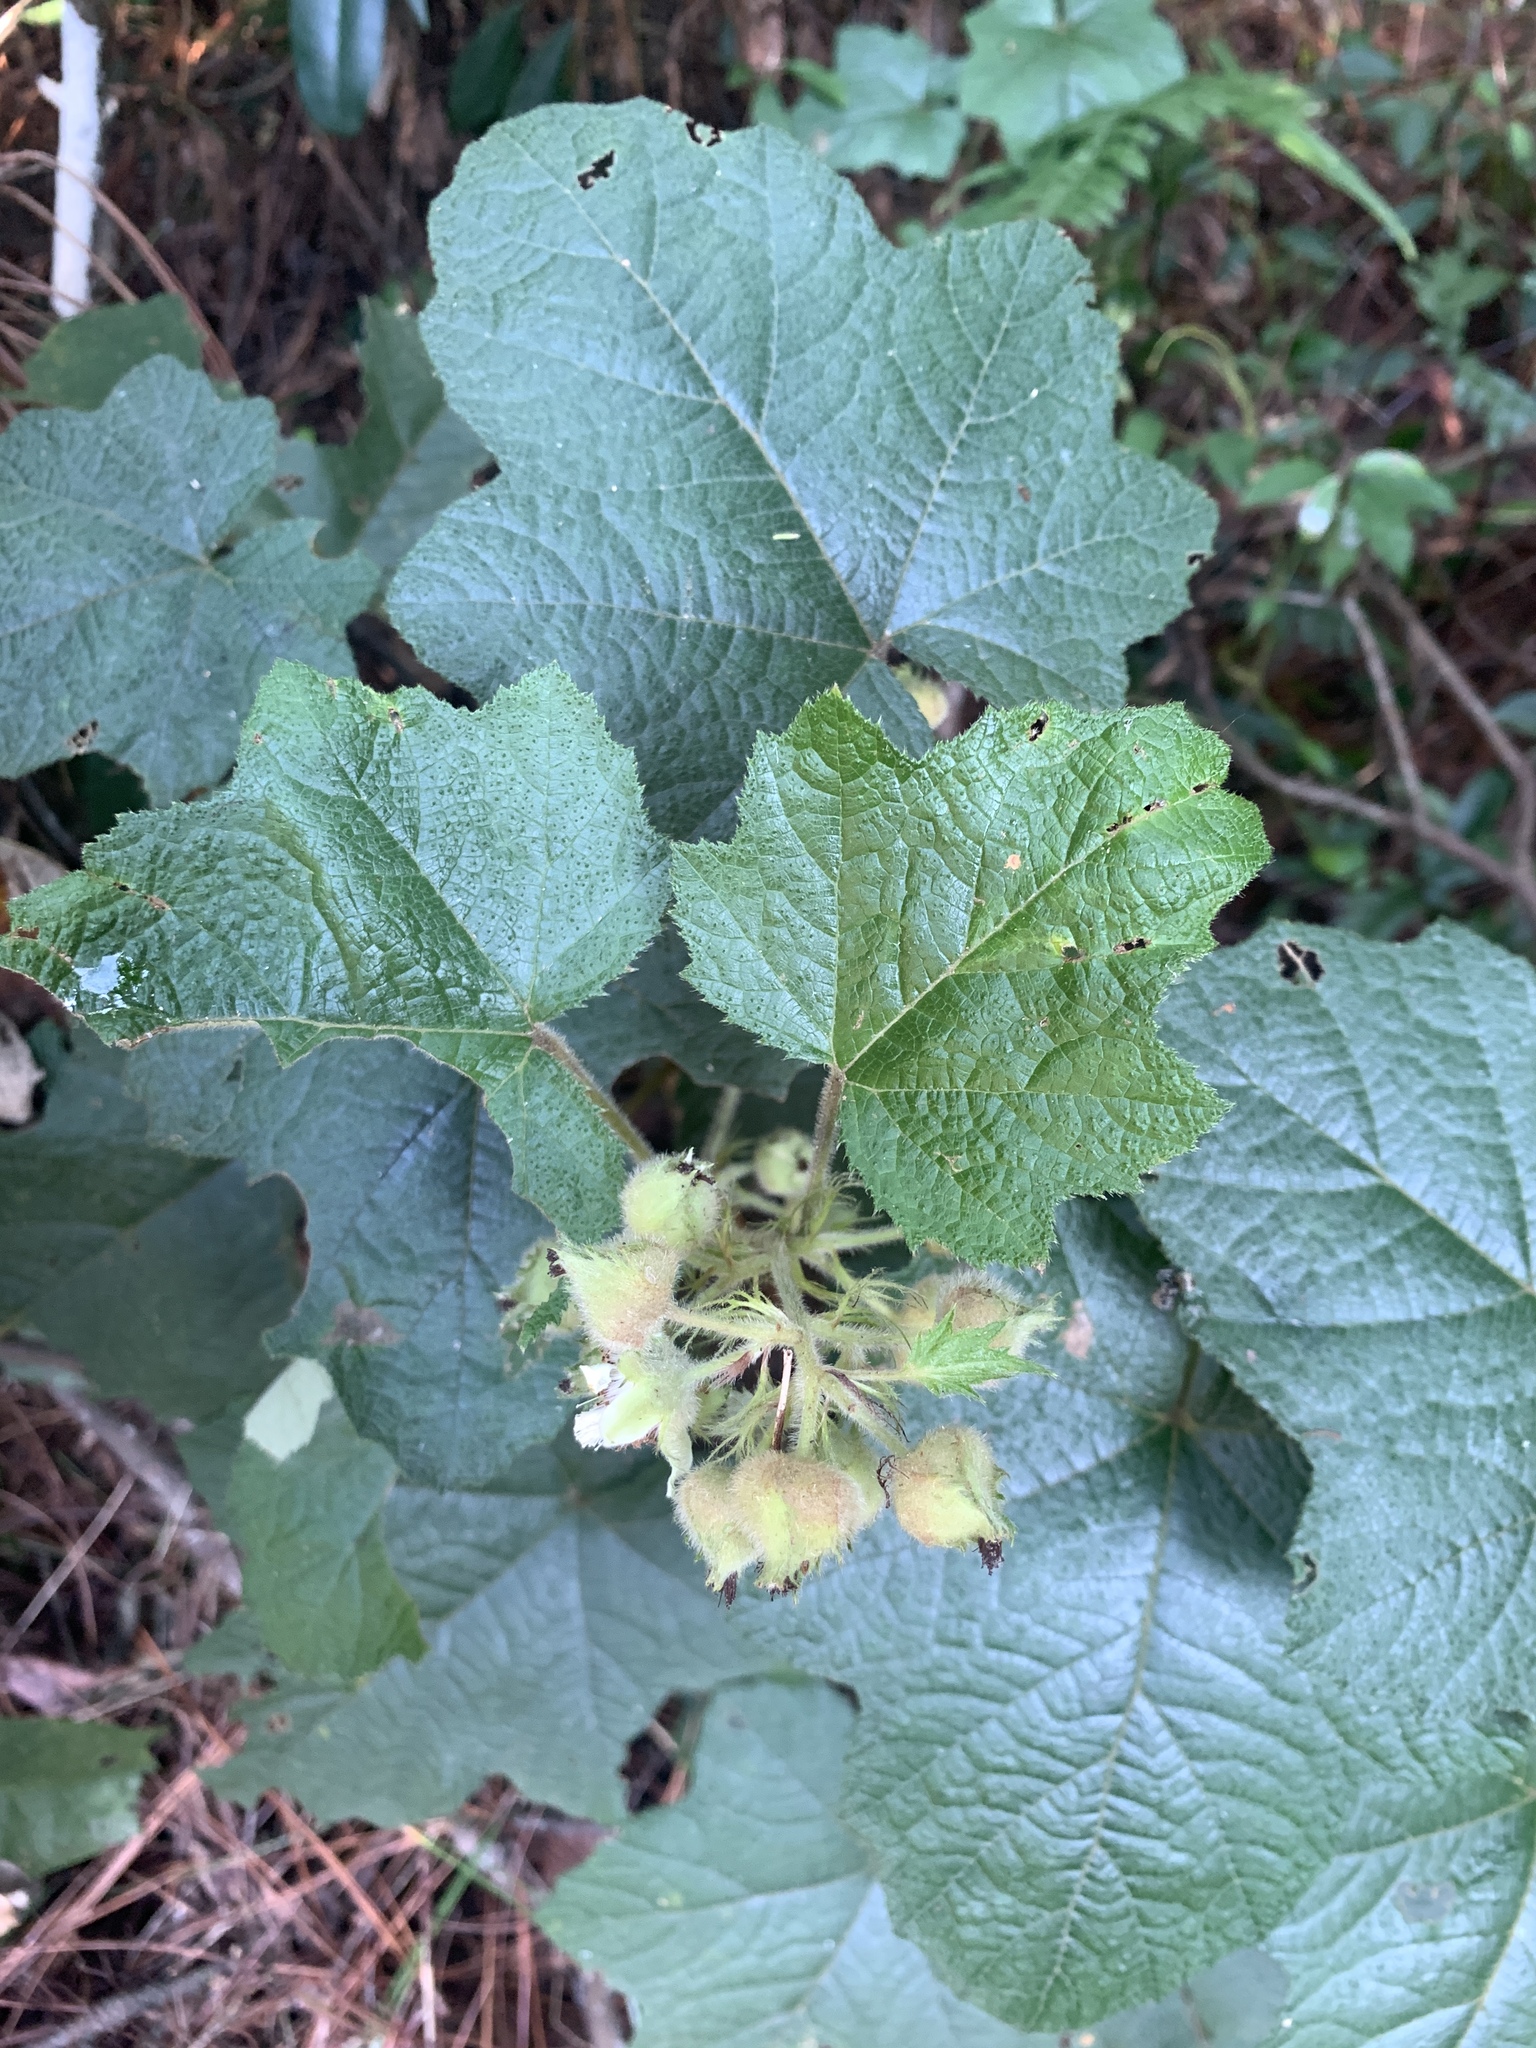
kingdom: Plantae
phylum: Tracheophyta
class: Magnoliopsida
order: Rosales
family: Rosaceae
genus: Rubus
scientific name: Rubus alceifolius
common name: Giant bramble
